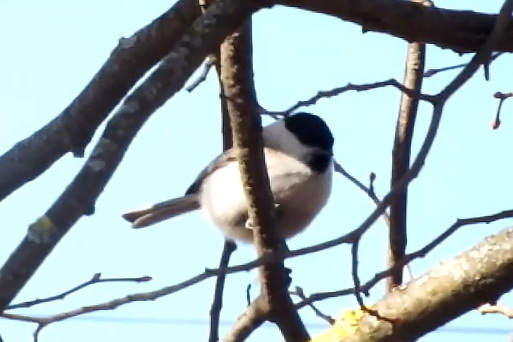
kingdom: Animalia
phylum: Chordata
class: Aves
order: Passeriformes
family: Paridae
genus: Poecile
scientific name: Poecile palustris
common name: Marsh tit
